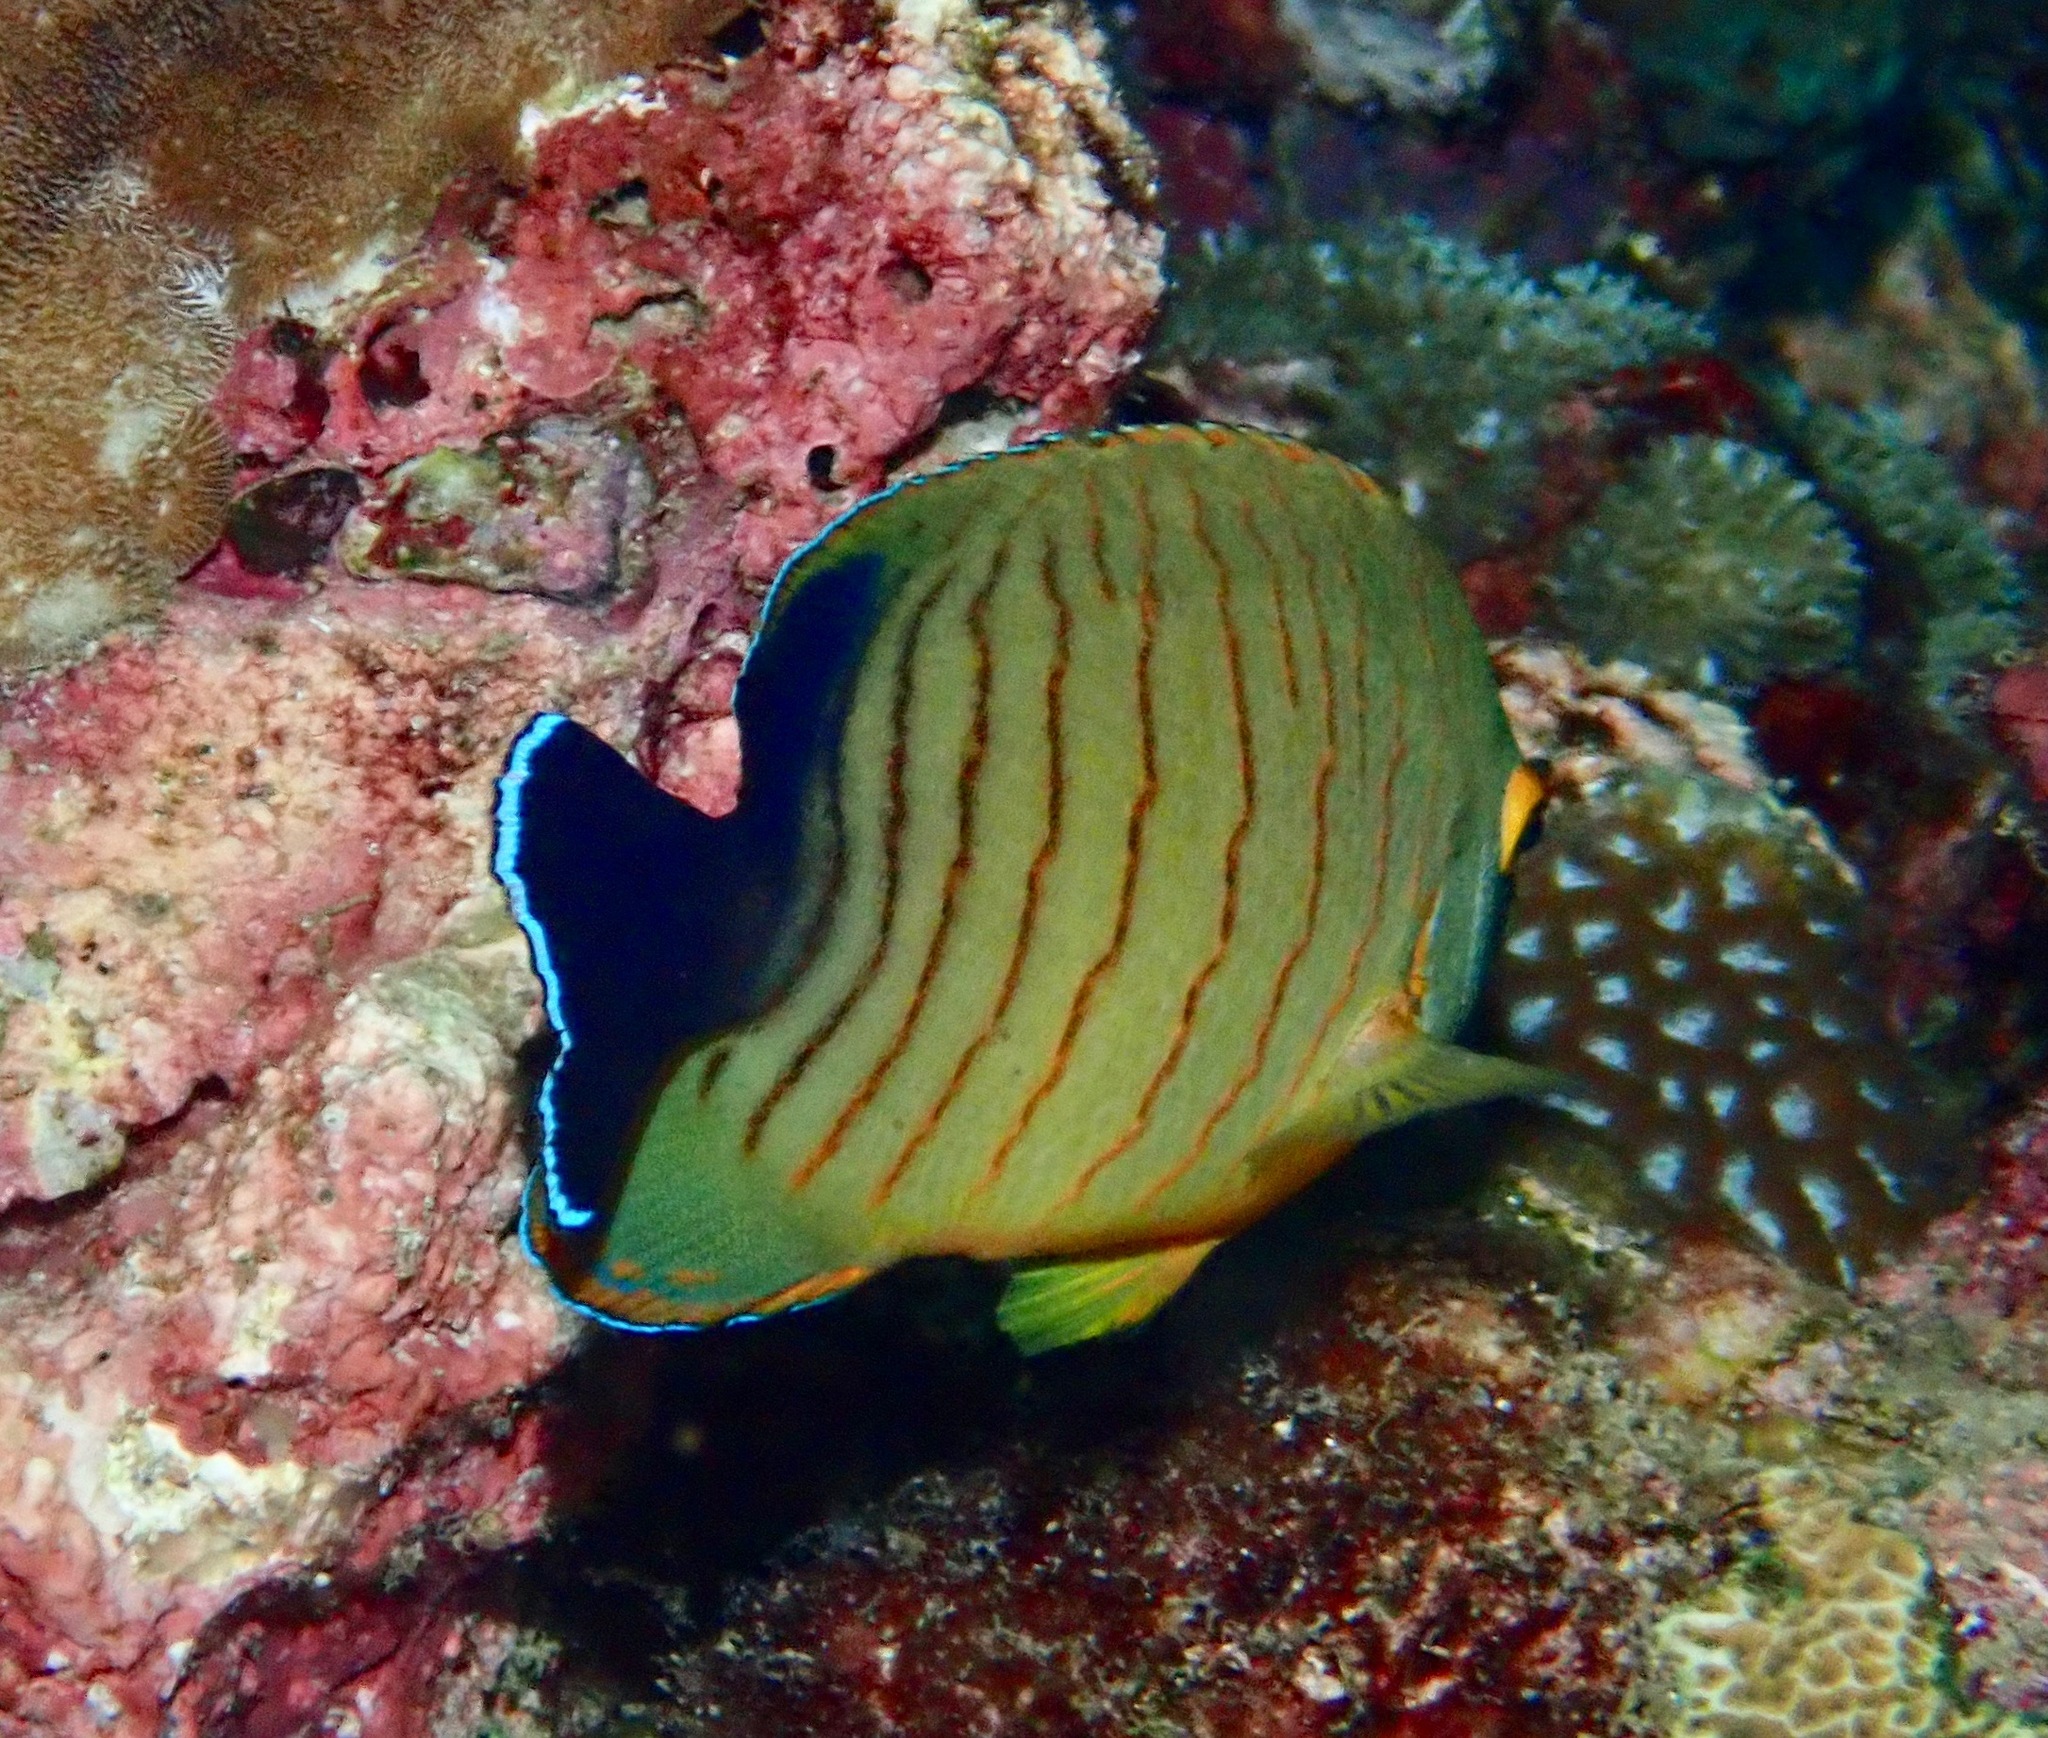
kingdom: Animalia
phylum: Chordata
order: Perciformes
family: Pomacanthidae
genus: Centropyge
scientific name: Centropyge eibli
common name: Eibl's angelfish
